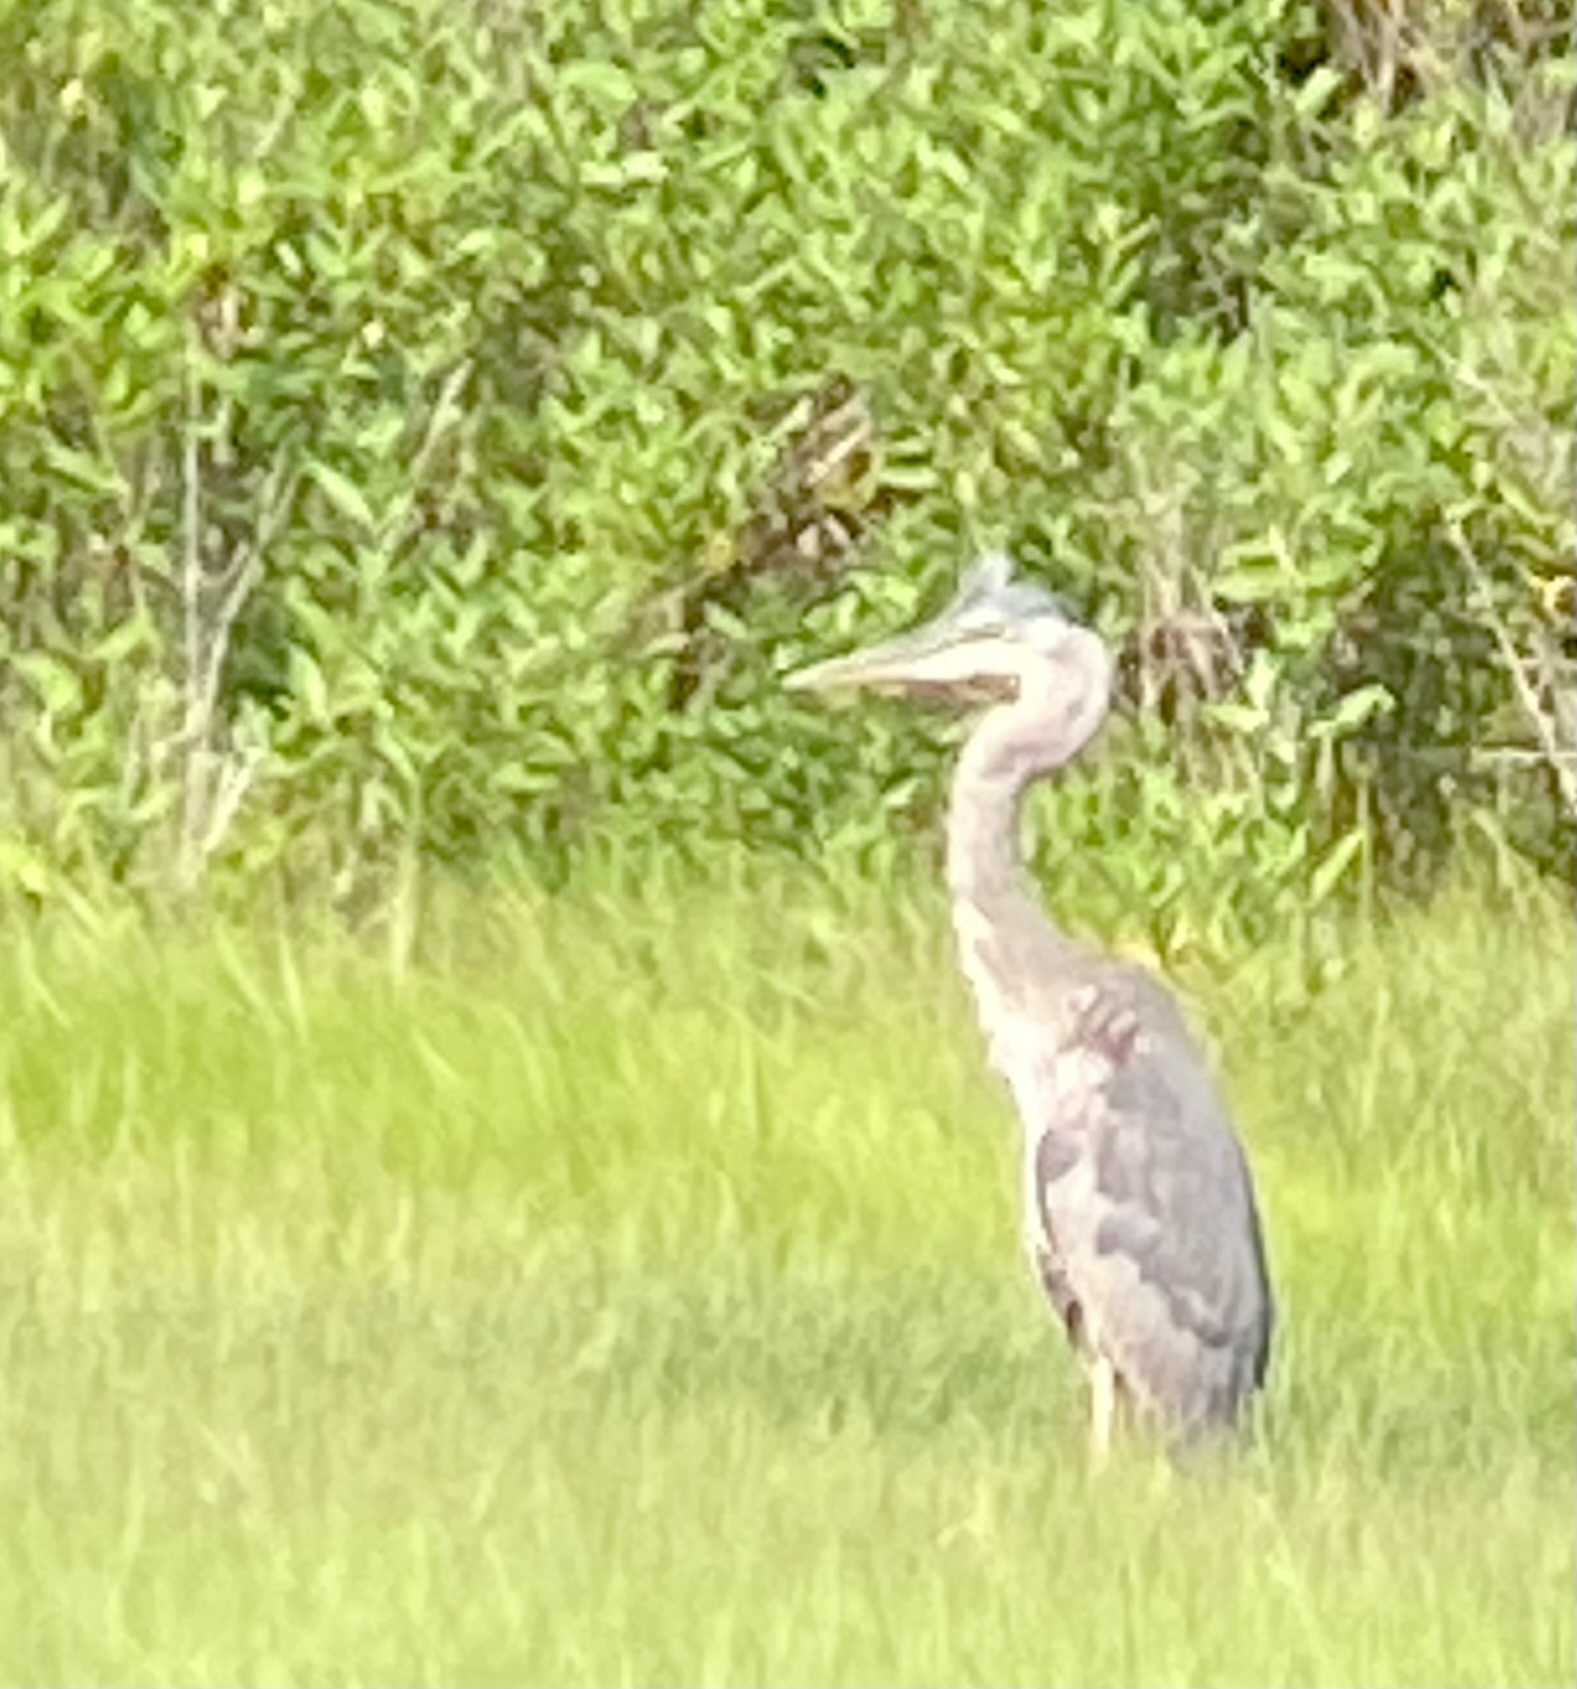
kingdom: Animalia
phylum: Chordata
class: Aves
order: Pelecaniformes
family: Ardeidae
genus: Ardea
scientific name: Ardea herodias
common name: Great blue heron
